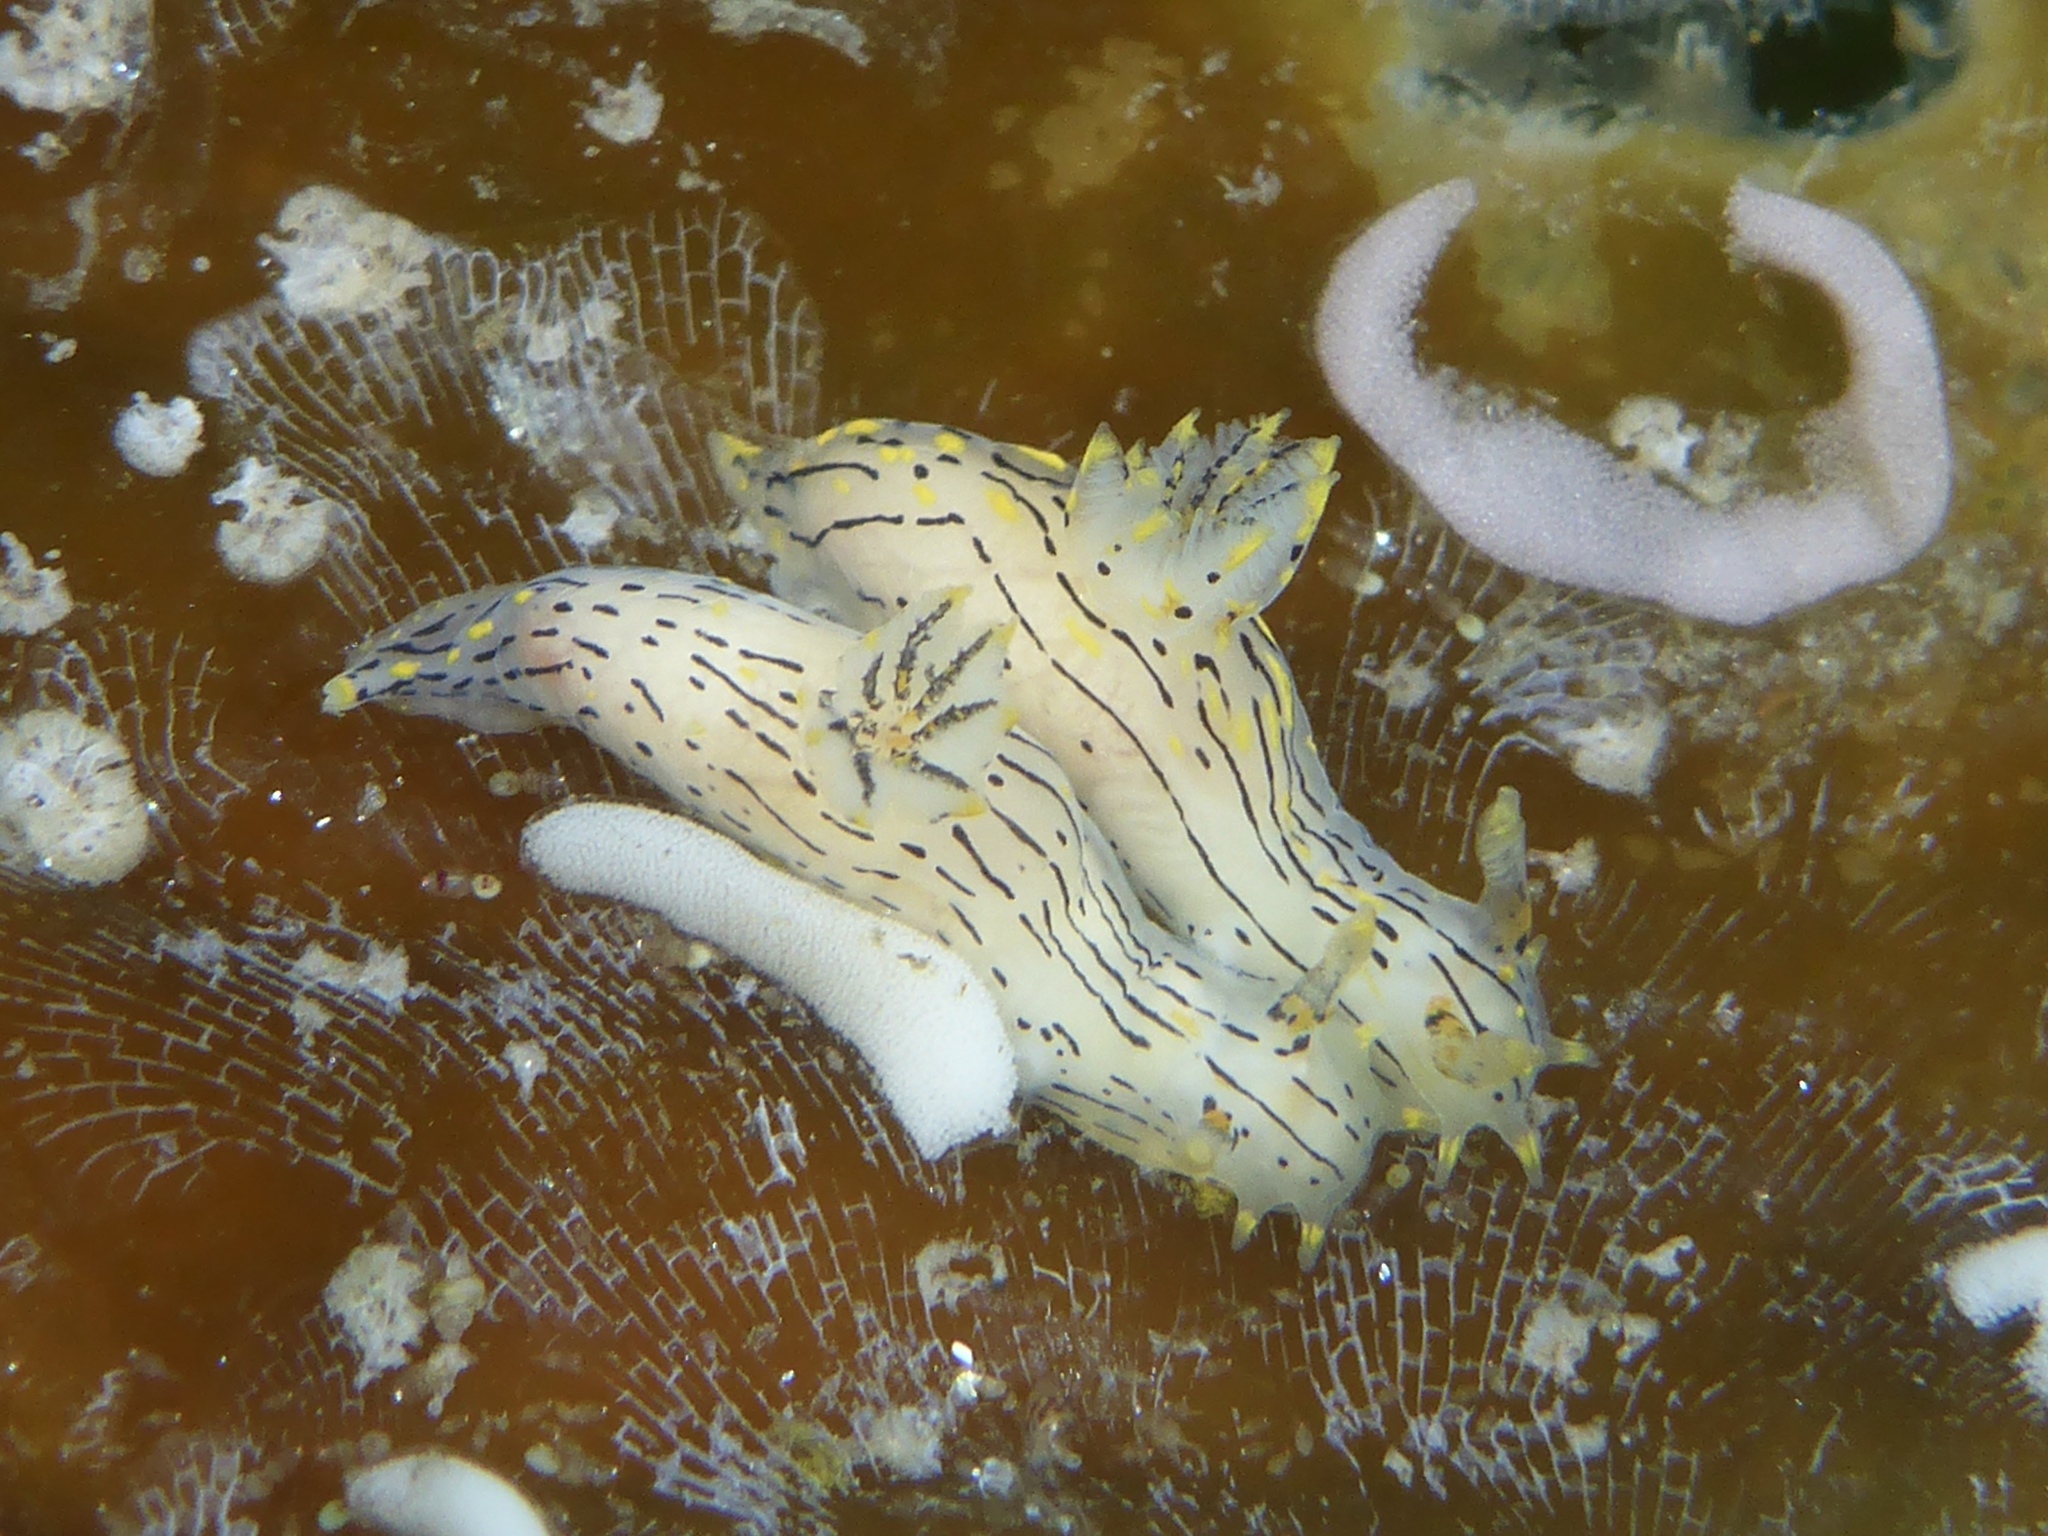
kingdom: Animalia
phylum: Mollusca
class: Gastropoda
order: Nudibranchia
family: Polyceridae
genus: Polycera
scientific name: Polycera atra
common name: Orange-spike polycera
